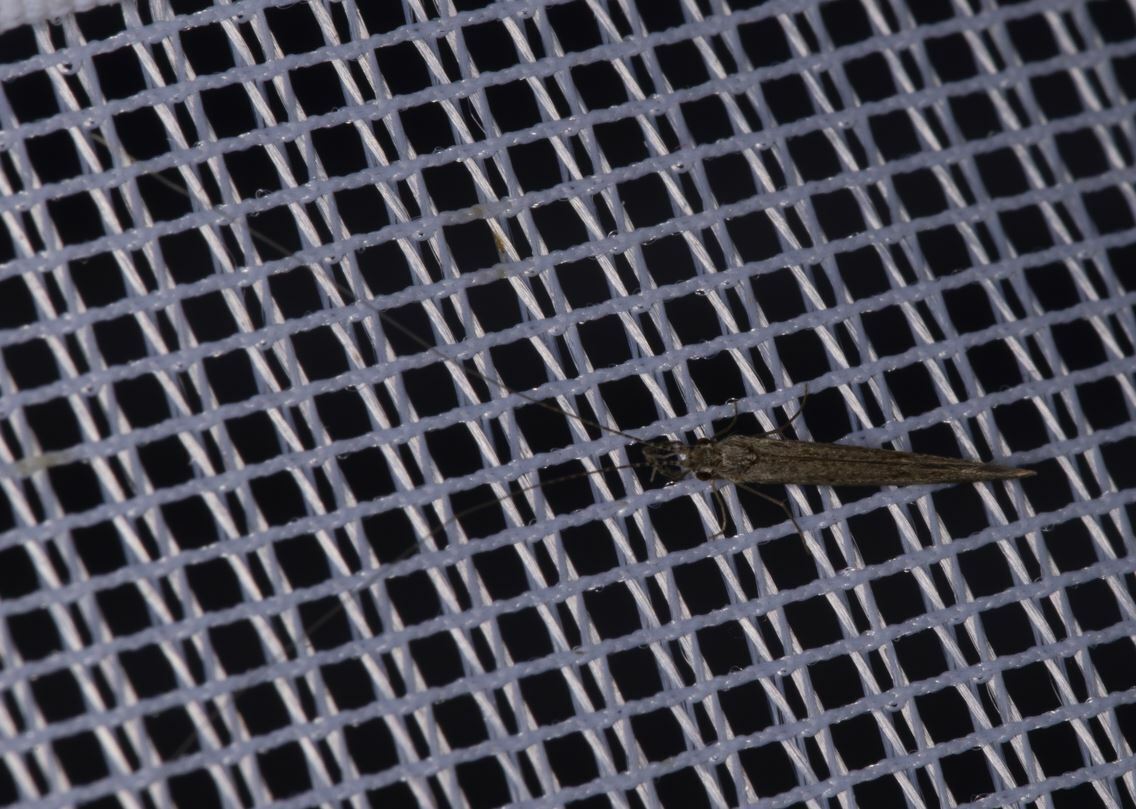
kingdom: Animalia
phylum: Arthropoda
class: Insecta
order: Trichoptera
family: Leptoceridae
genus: Leptocerus
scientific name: Leptocerus tineiformis
